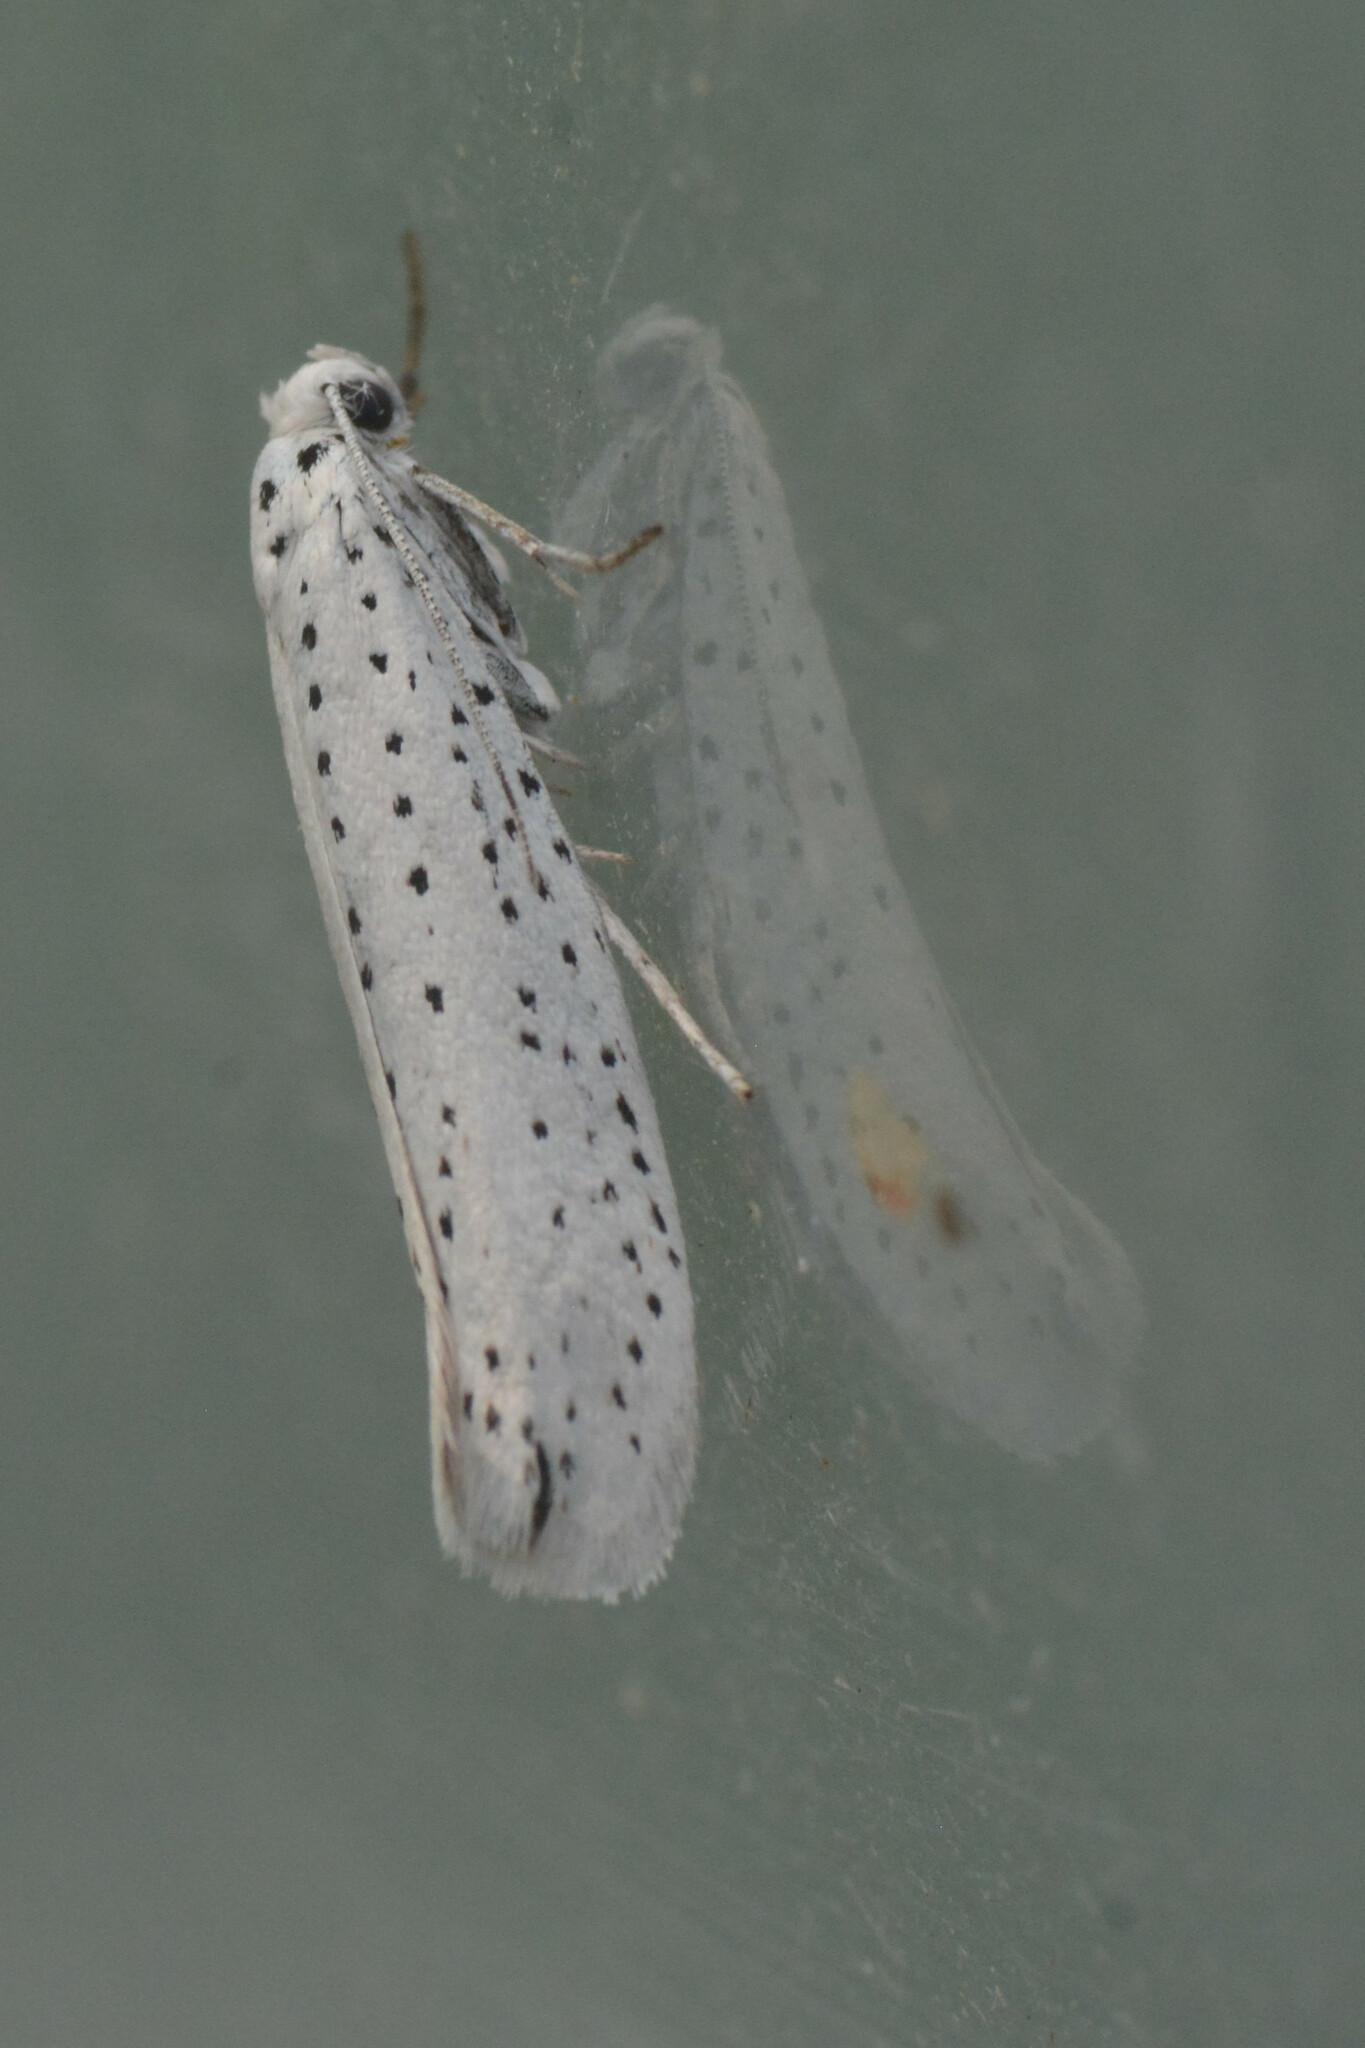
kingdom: Animalia
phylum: Arthropoda
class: Insecta
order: Lepidoptera
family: Yponomeutidae
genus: Yponomeuta
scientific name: Yponomeuta evonymella
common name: Bird-cherry ermine
